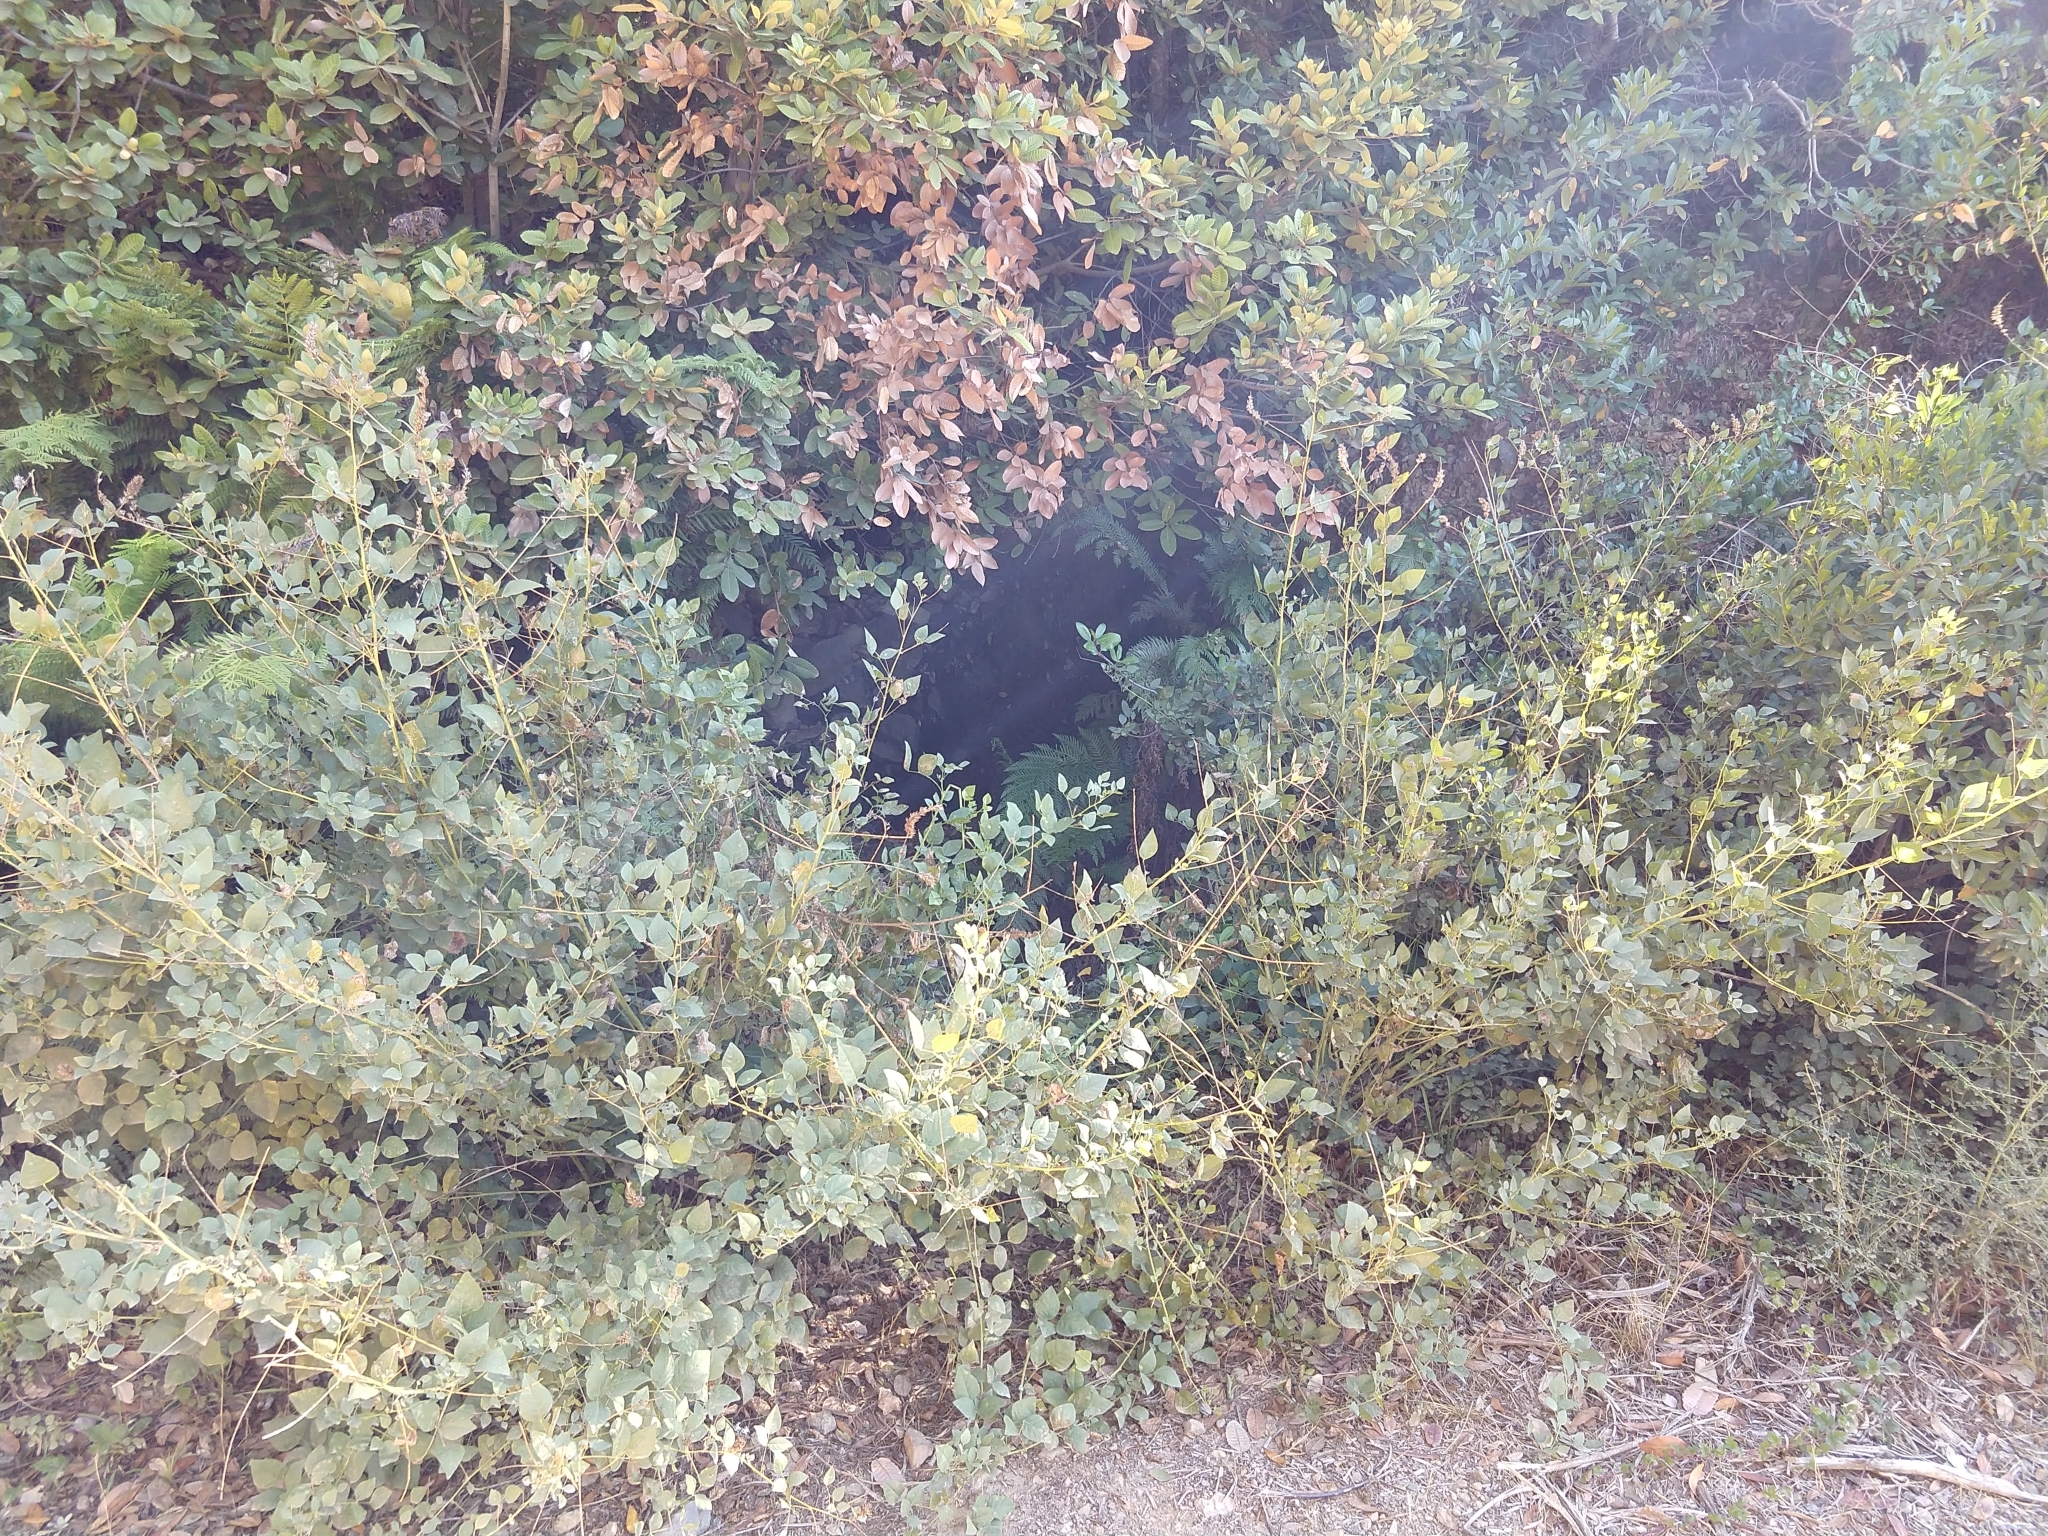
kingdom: Plantae
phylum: Tracheophyta
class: Magnoliopsida
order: Fabales
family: Fabaceae
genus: Hoita
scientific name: Hoita macrostachya
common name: Leatherroot
